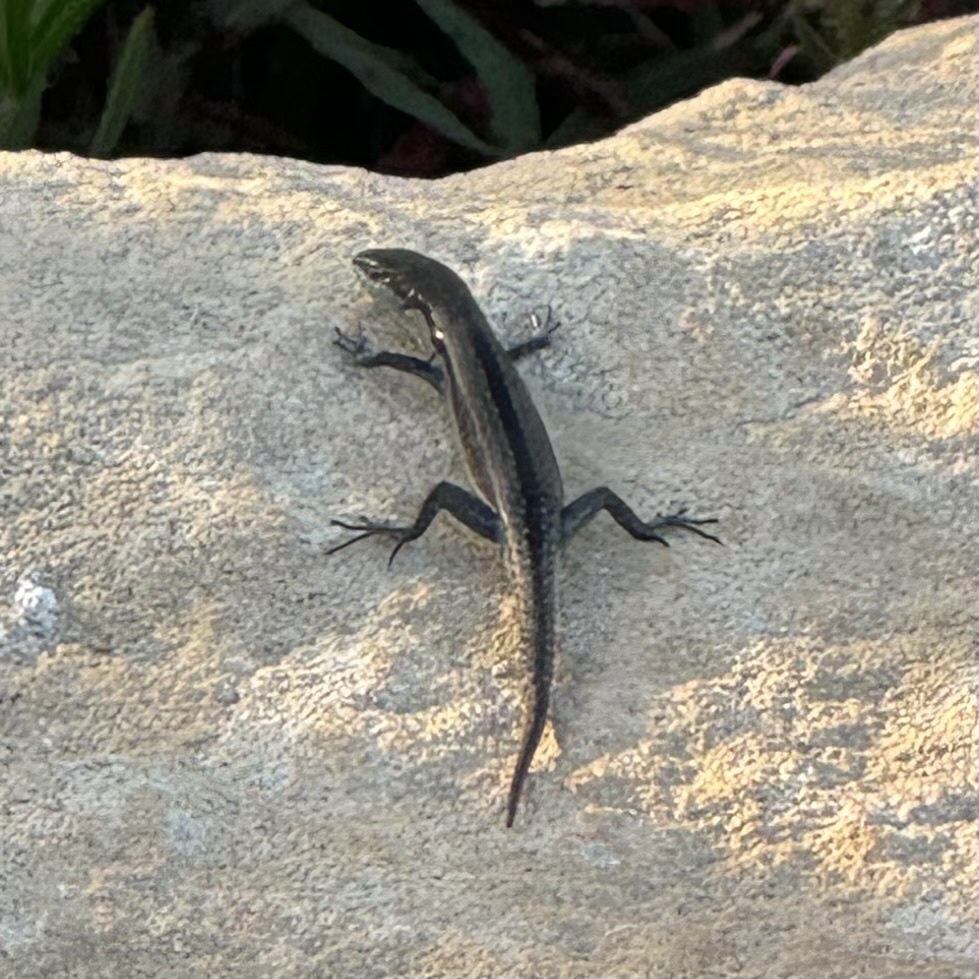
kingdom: Animalia
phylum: Chordata
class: Squamata
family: Scincidae
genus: Lampropholis
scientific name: Lampropholis guichenoti
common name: Garden skink
